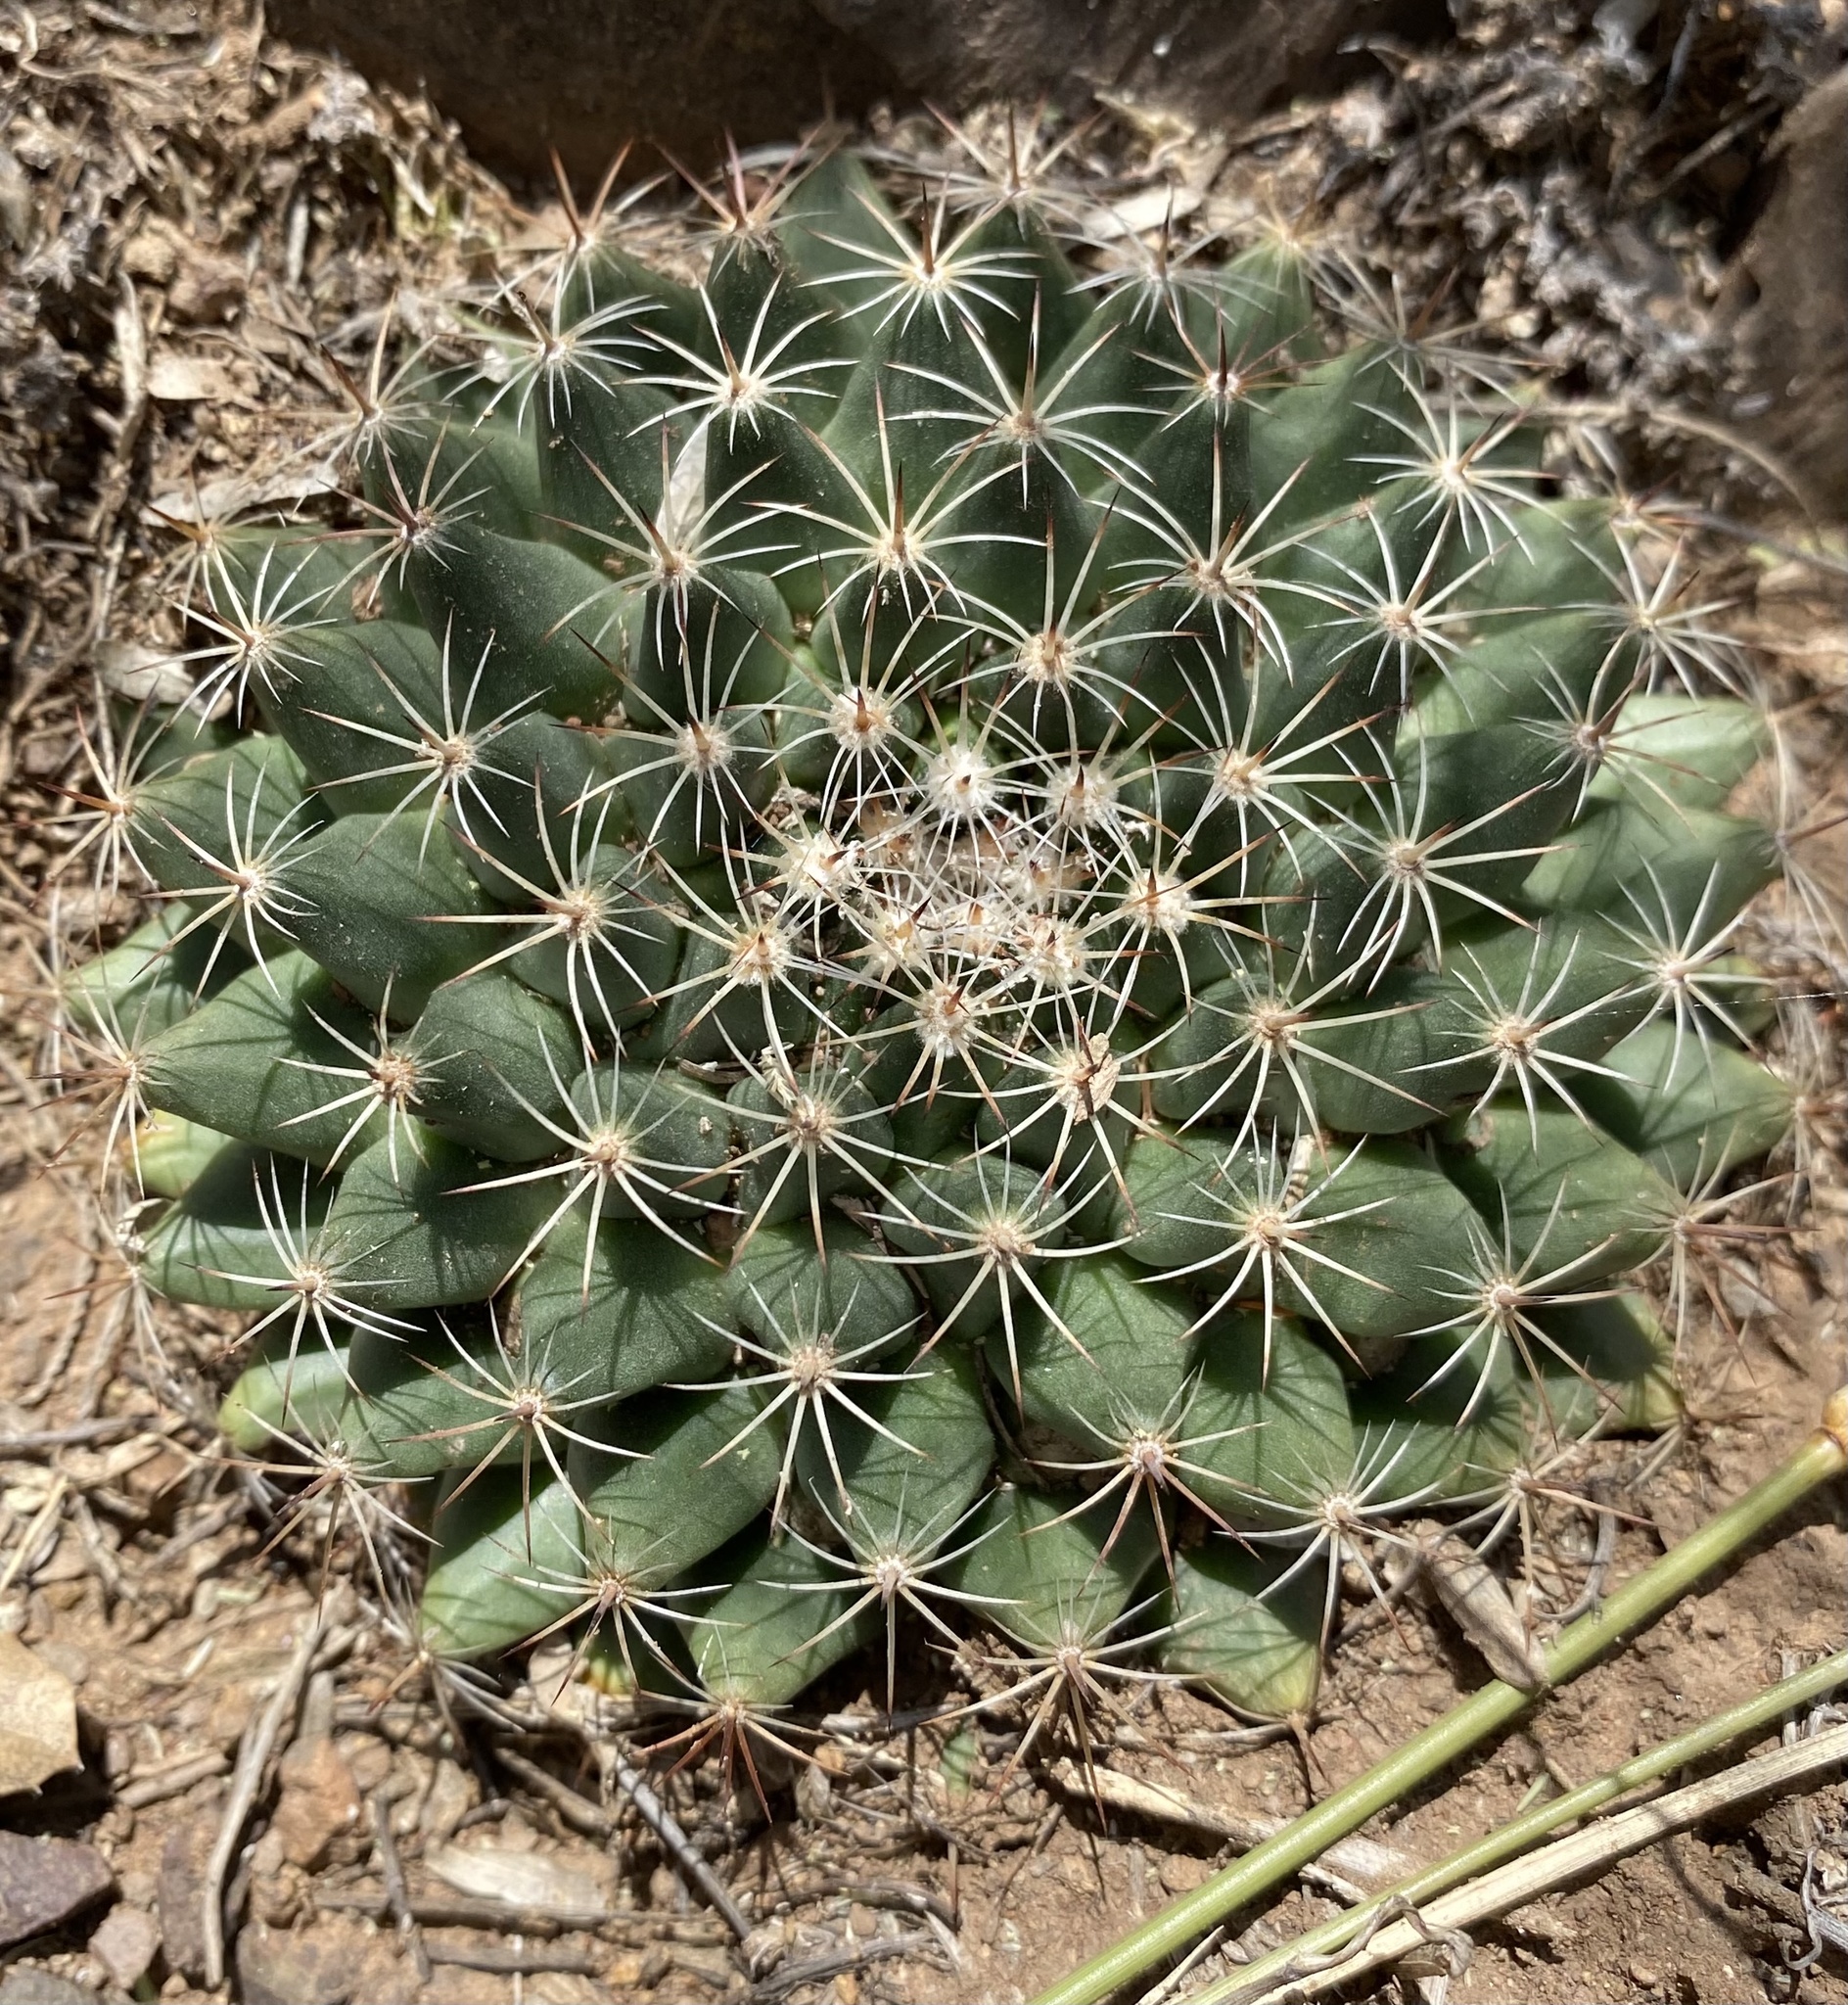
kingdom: Plantae
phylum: Tracheophyta
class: Magnoliopsida
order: Caryophyllales
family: Cactaceae
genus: Mammillaria
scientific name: Mammillaria heyderi
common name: Little nipple cactus
